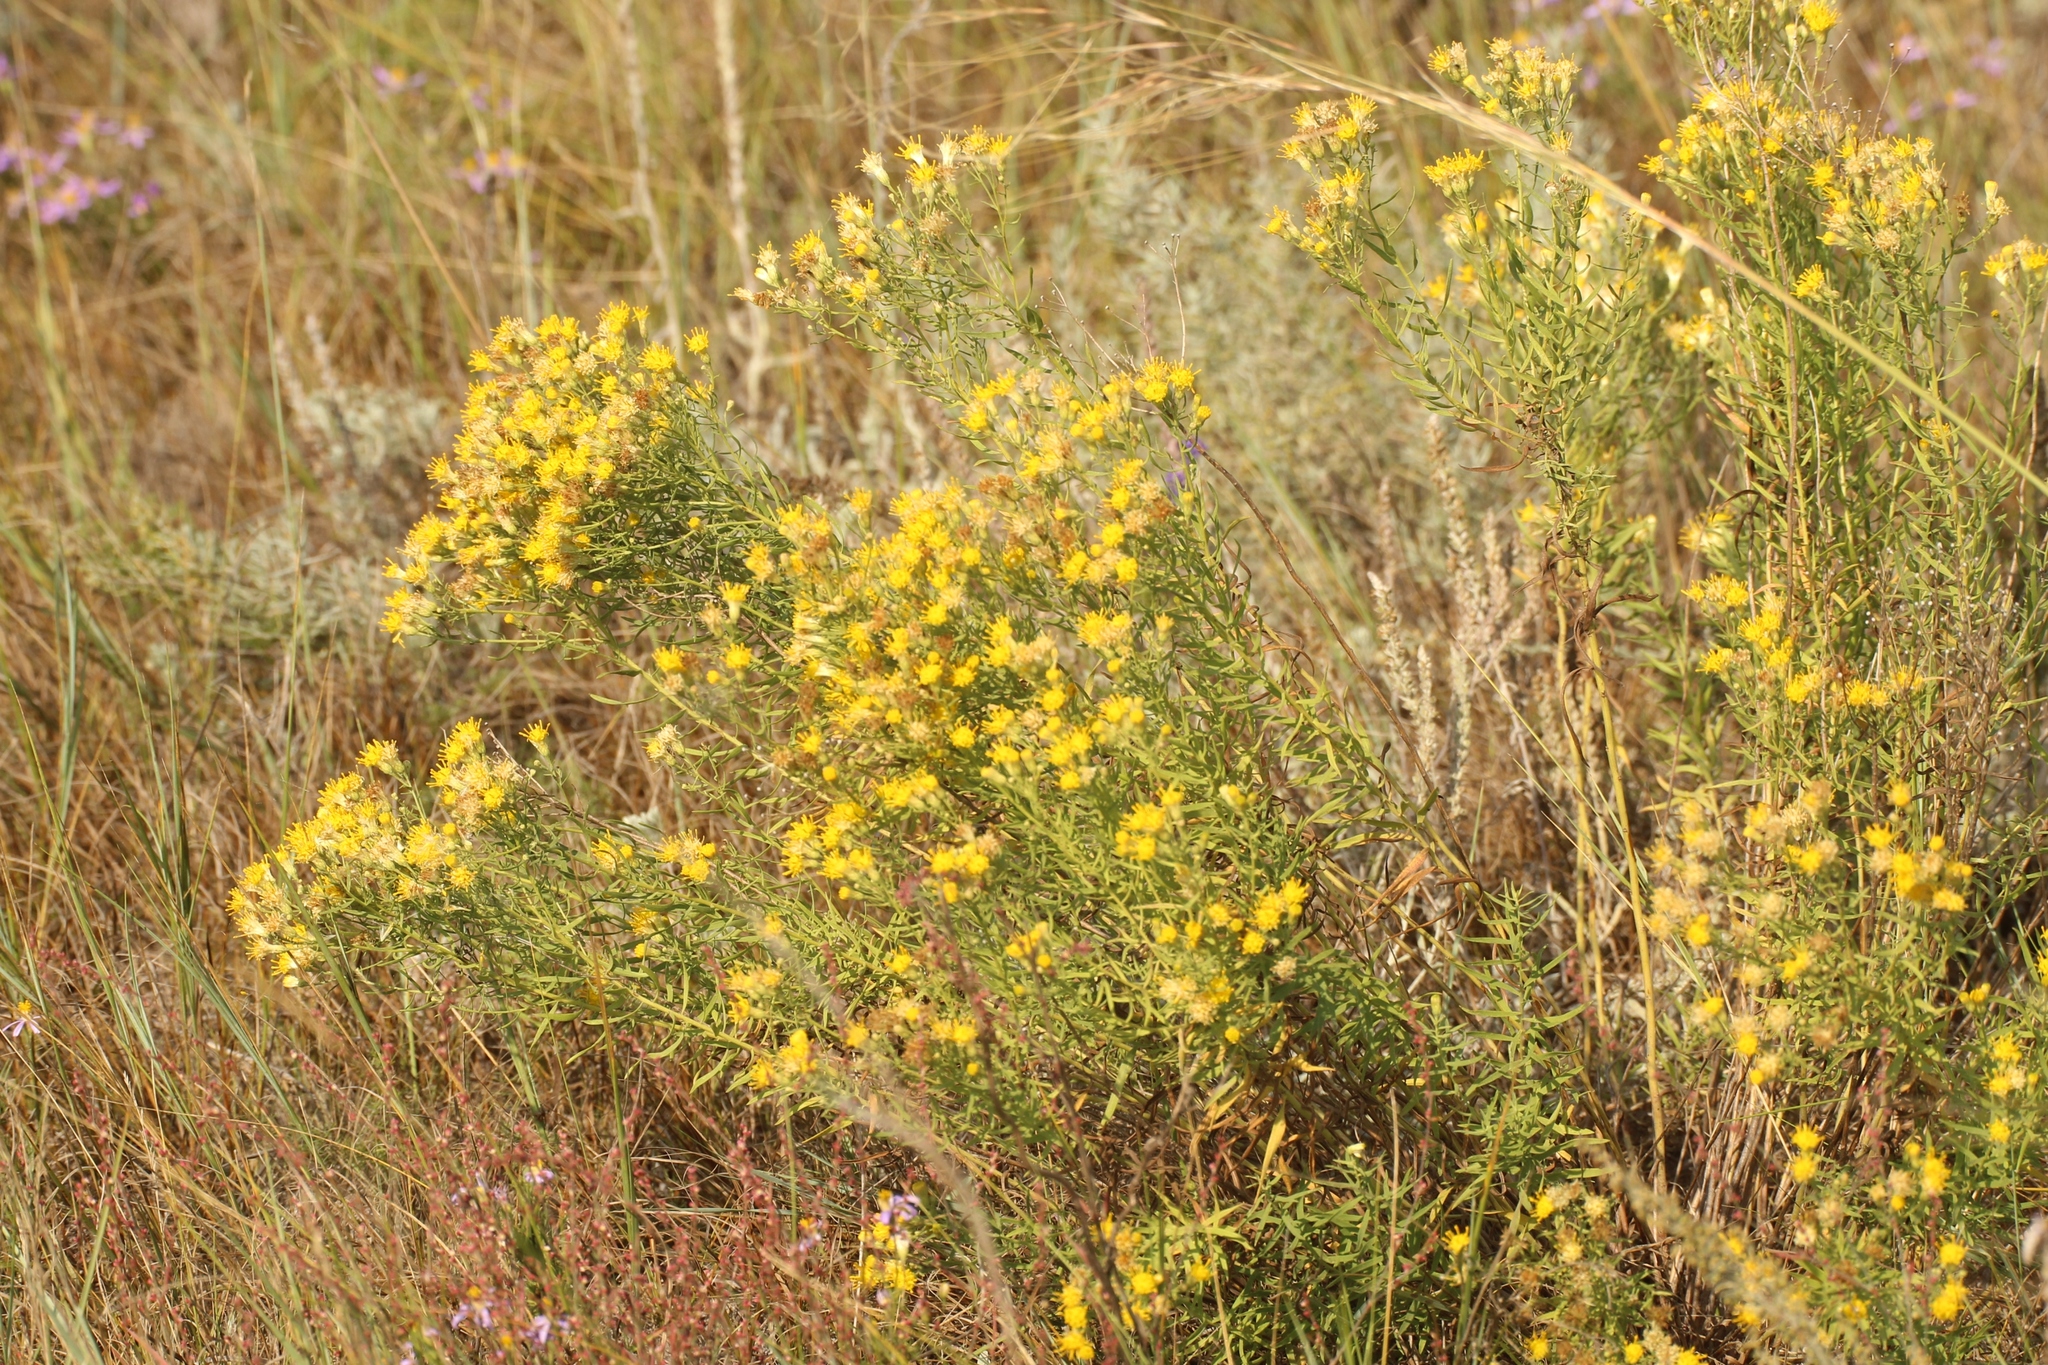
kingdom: Plantae
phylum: Tracheophyta
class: Magnoliopsida
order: Asterales
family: Asteraceae
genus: Galatella
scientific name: Galatella biflora
